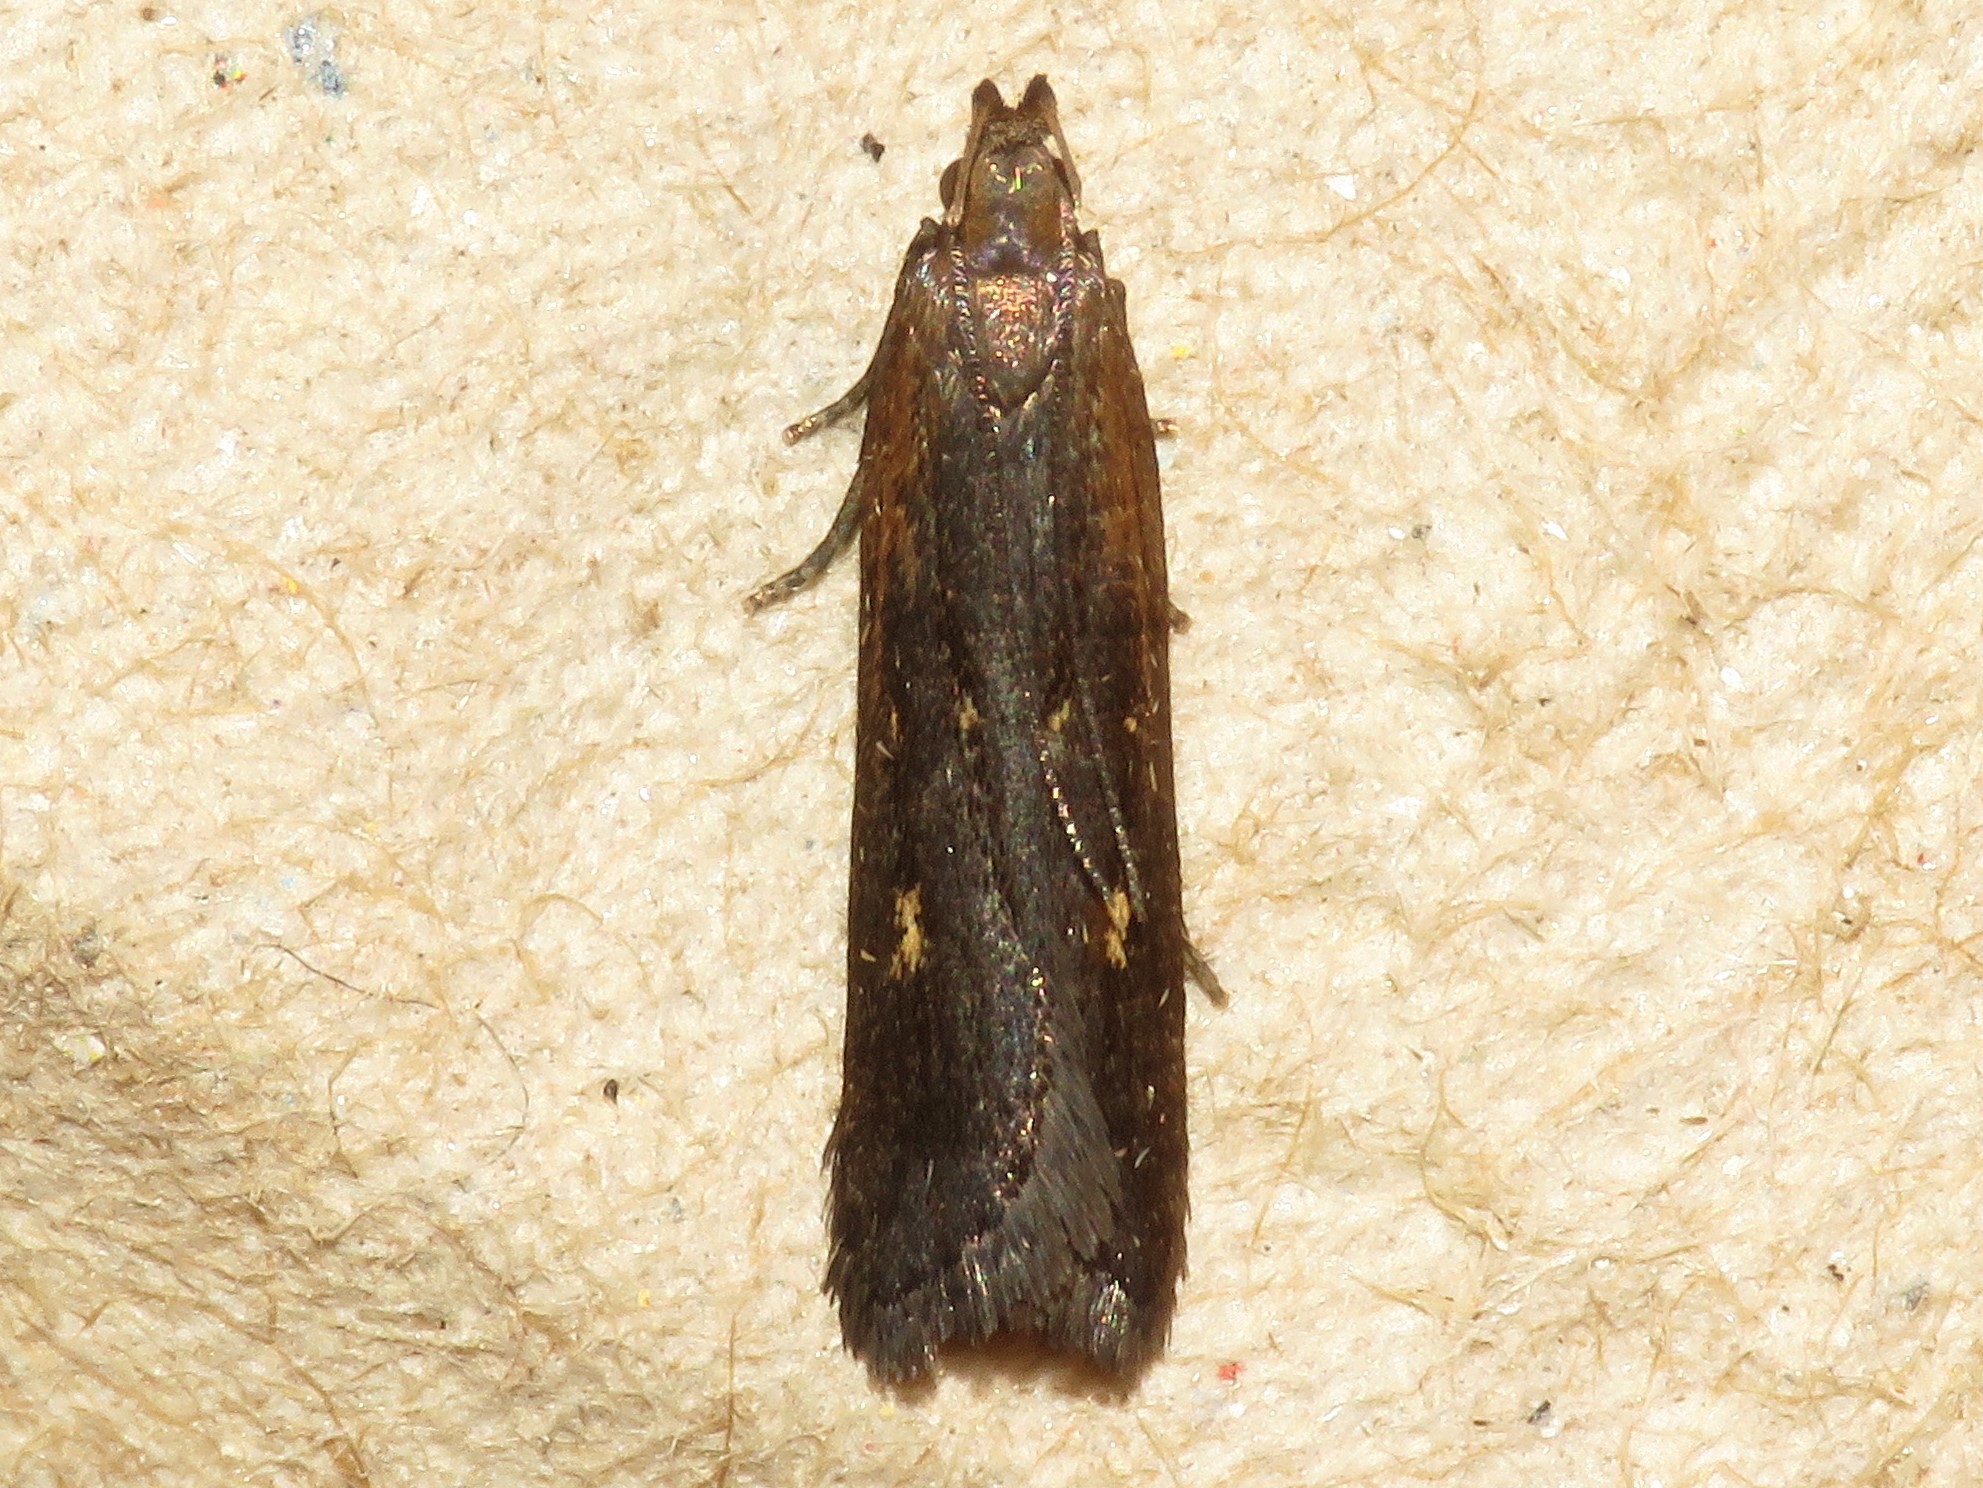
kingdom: Animalia
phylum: Arthropoda
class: Insecta
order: Lepidoptera
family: Gelechiidae
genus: Dichomeris
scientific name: Dichomeris copa
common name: Copa dichomeris moth
